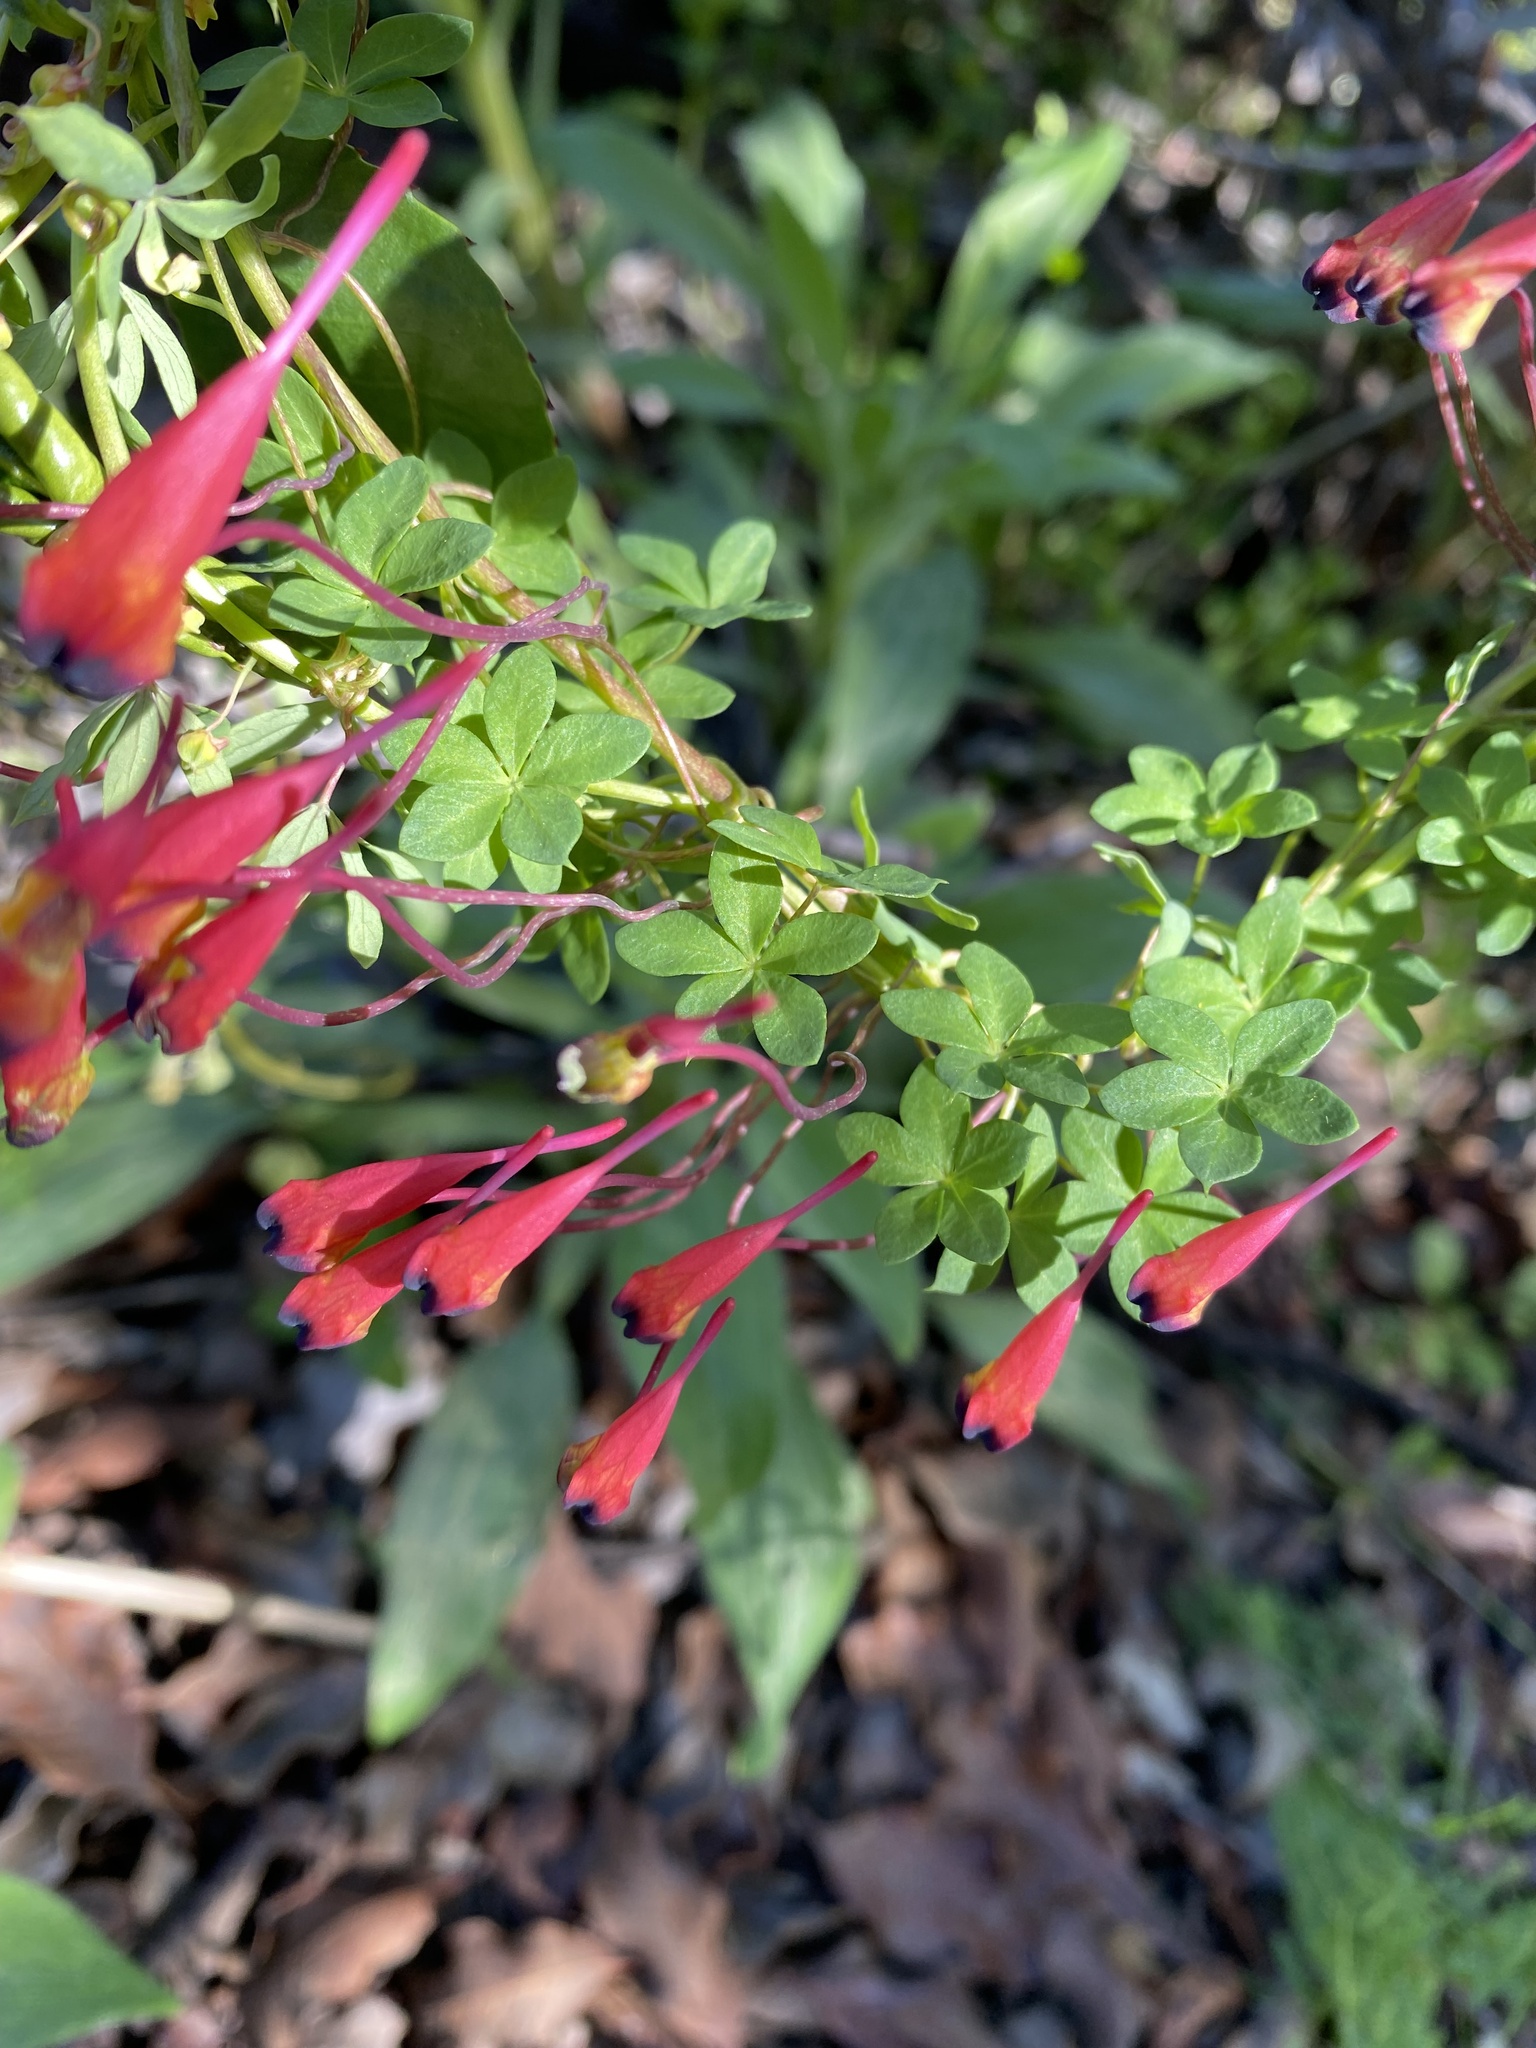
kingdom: Plantae
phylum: Tracheophyta
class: Magnoliopsida
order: Brassicales
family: Tropaeolaceae
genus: Tropaeolum
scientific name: Tropaeolum tricolor
